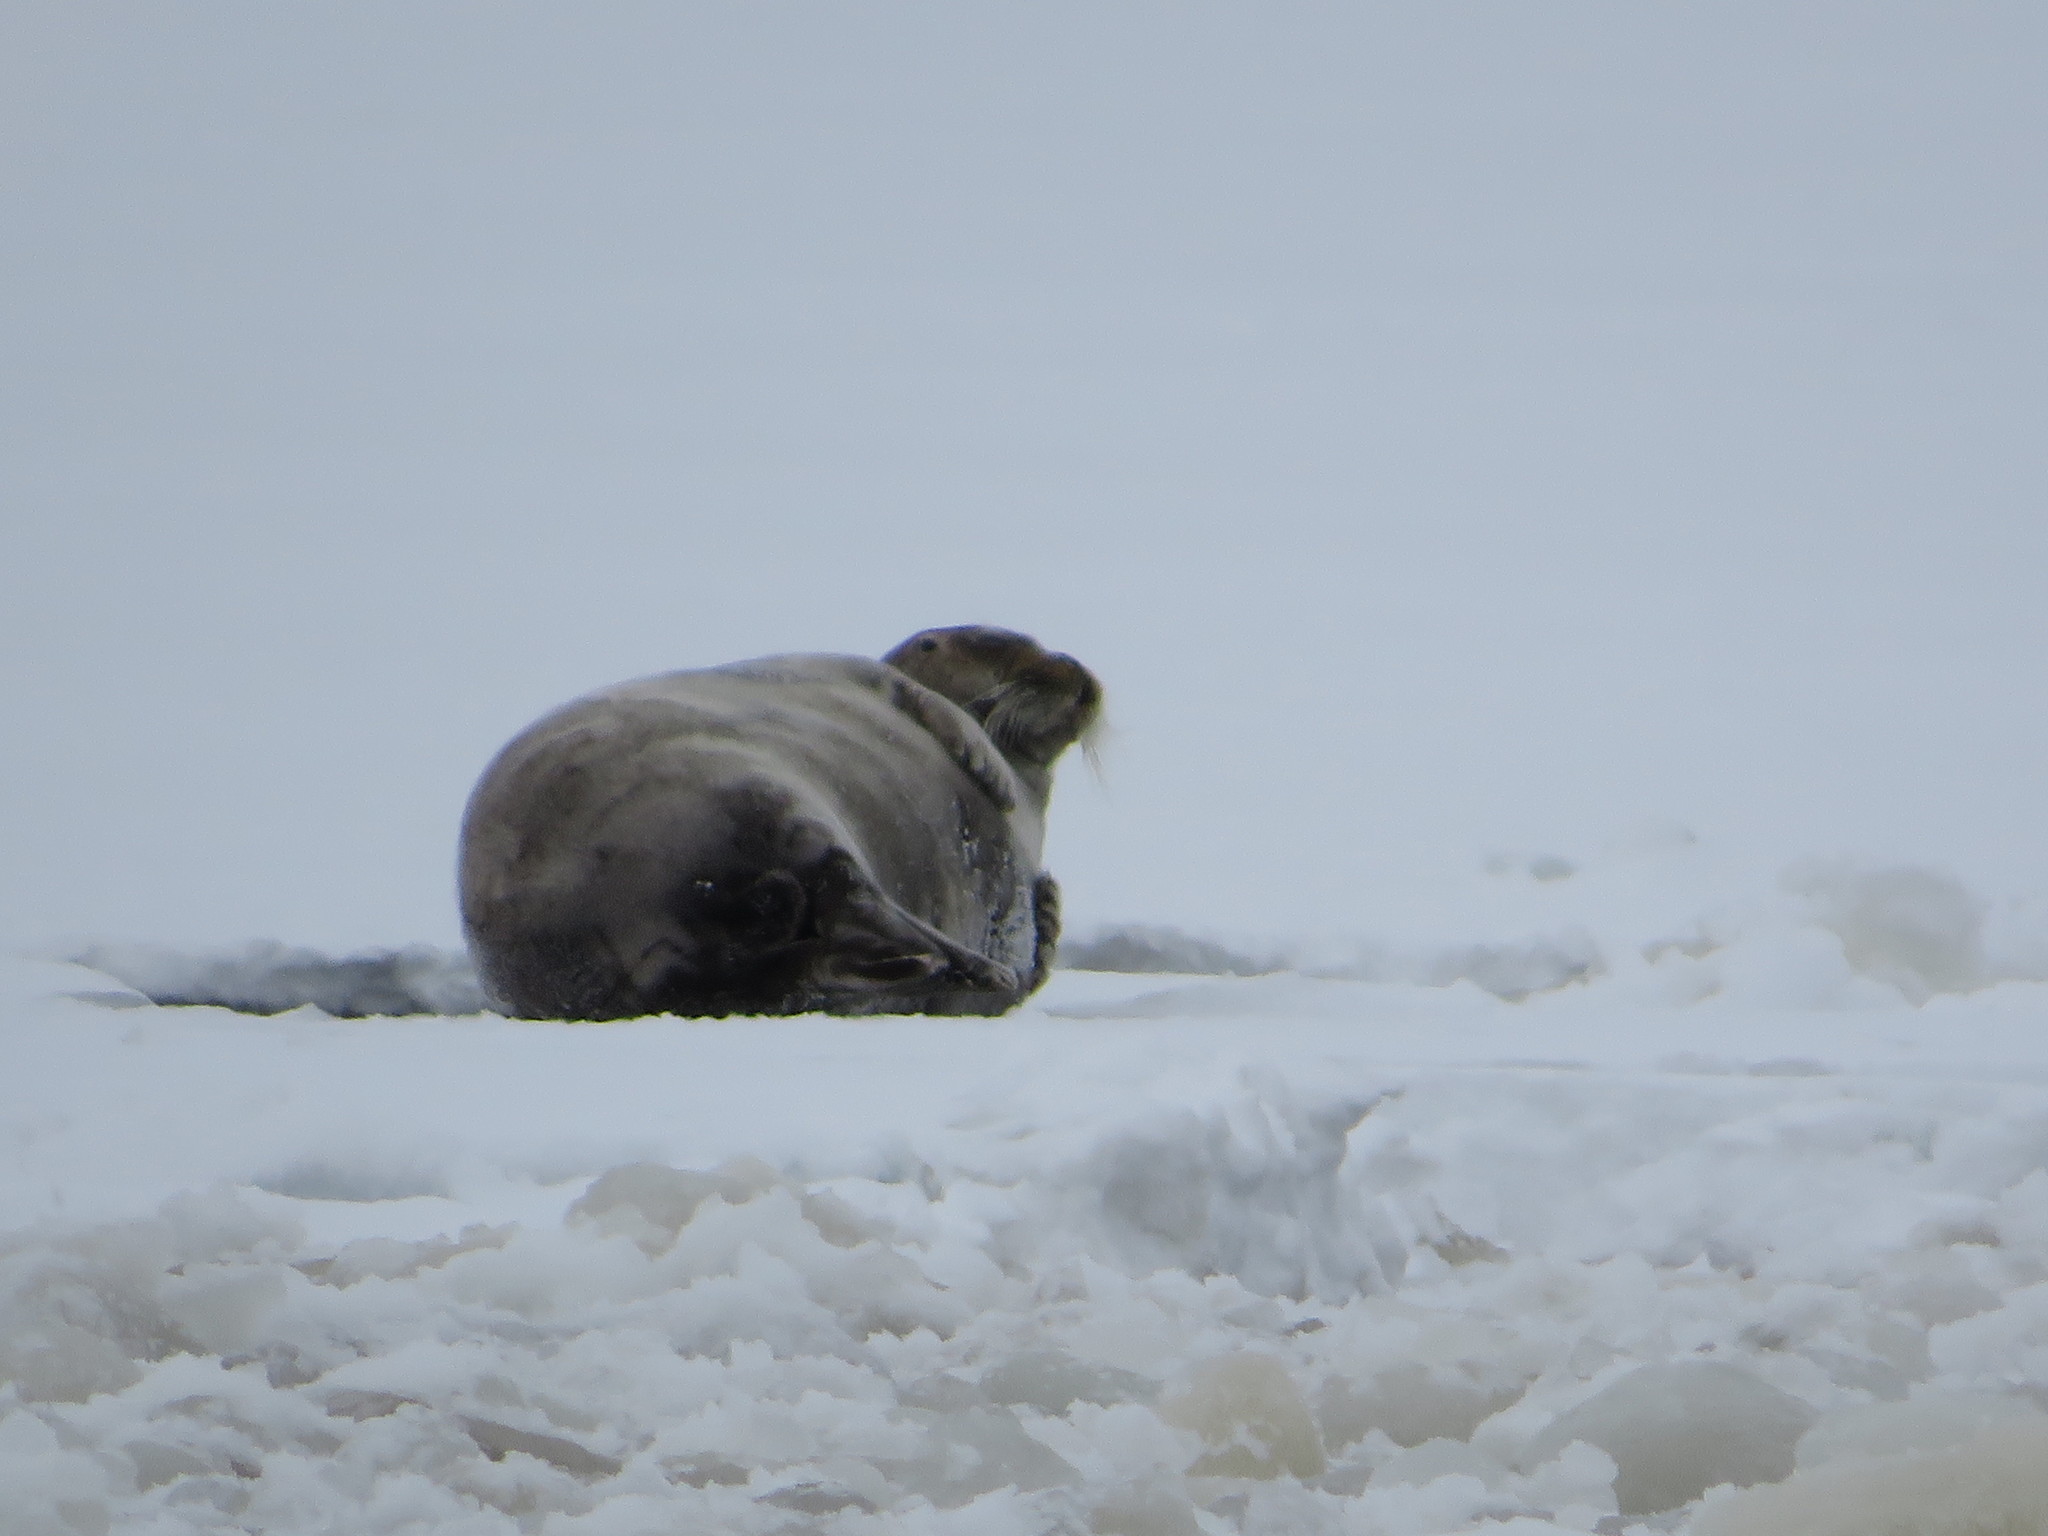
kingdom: Animalia
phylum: Chordata
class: Mammalia
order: Carnivora
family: Phocidae
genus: Erignathus
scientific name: Erignathus barbatus
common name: Bearded seal
